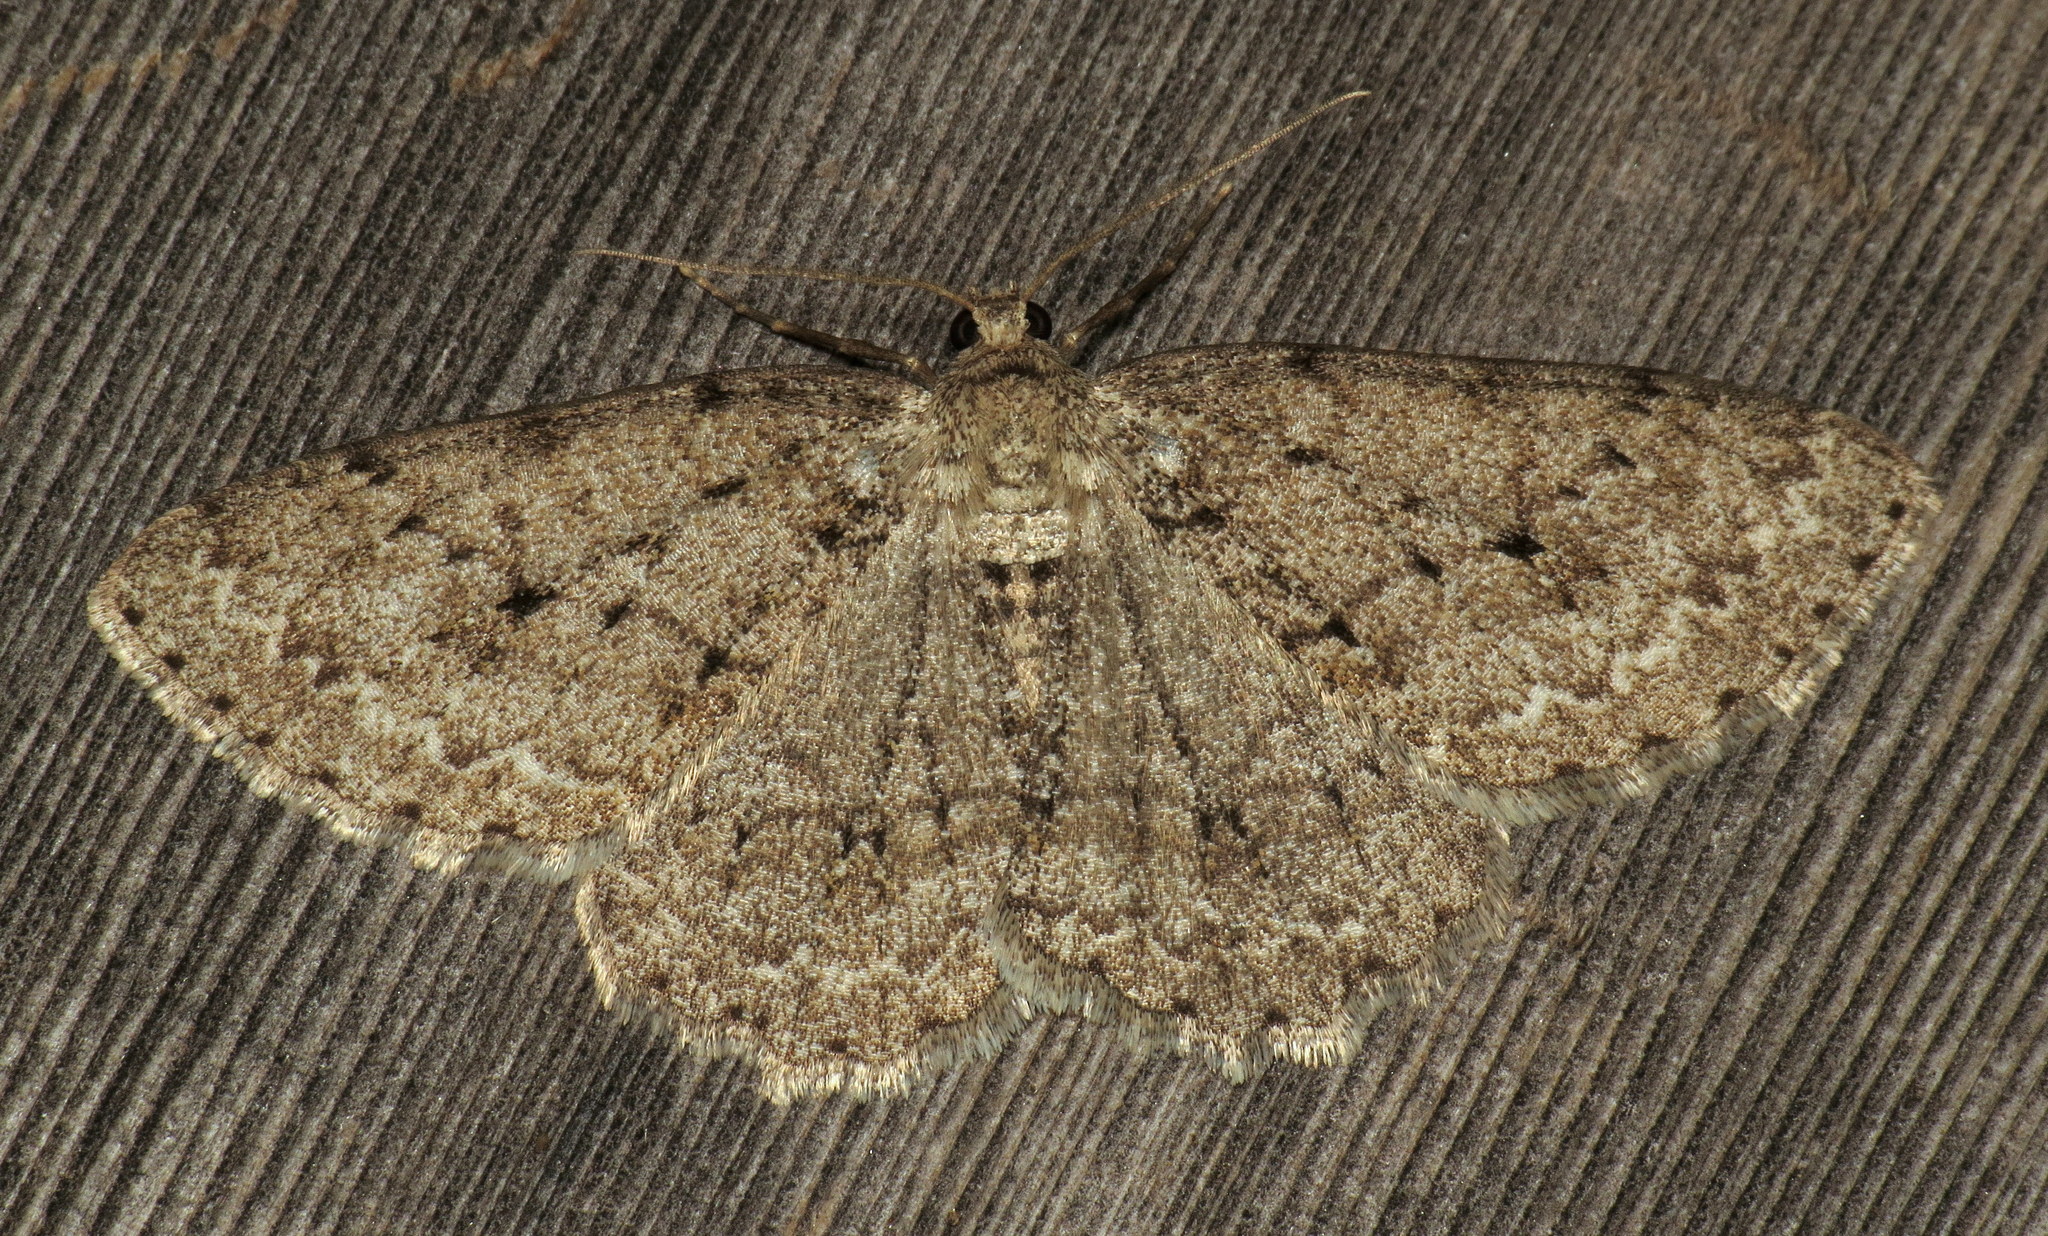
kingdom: Animalia
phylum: Arthropoda
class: Insecta
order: Lepidoptera
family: Geometridae
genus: Ectropis
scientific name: Ectropis crepuscularia
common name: Engrailed
